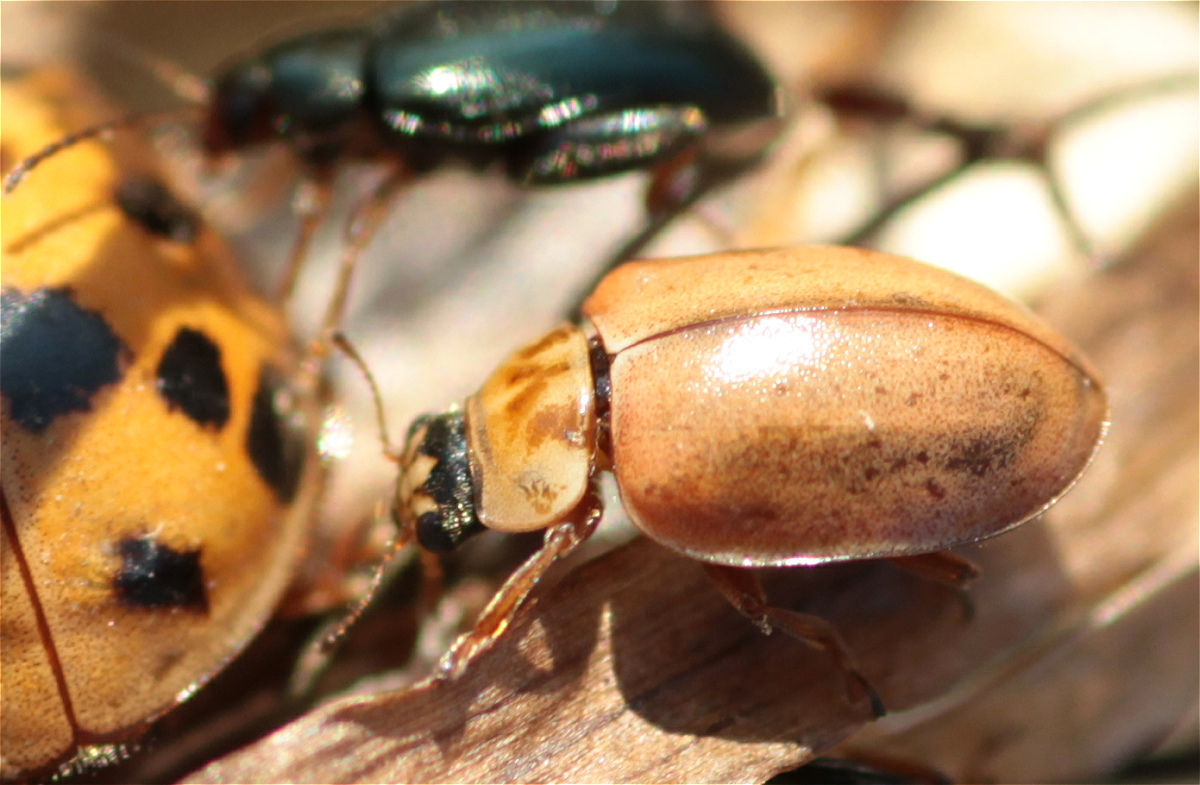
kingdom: Animalia
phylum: Arthropoda
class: Insecta
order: Coleoptera
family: Coccinellidae
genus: Aphidecta
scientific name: Aphidecta obliterata
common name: Larch ladybird
